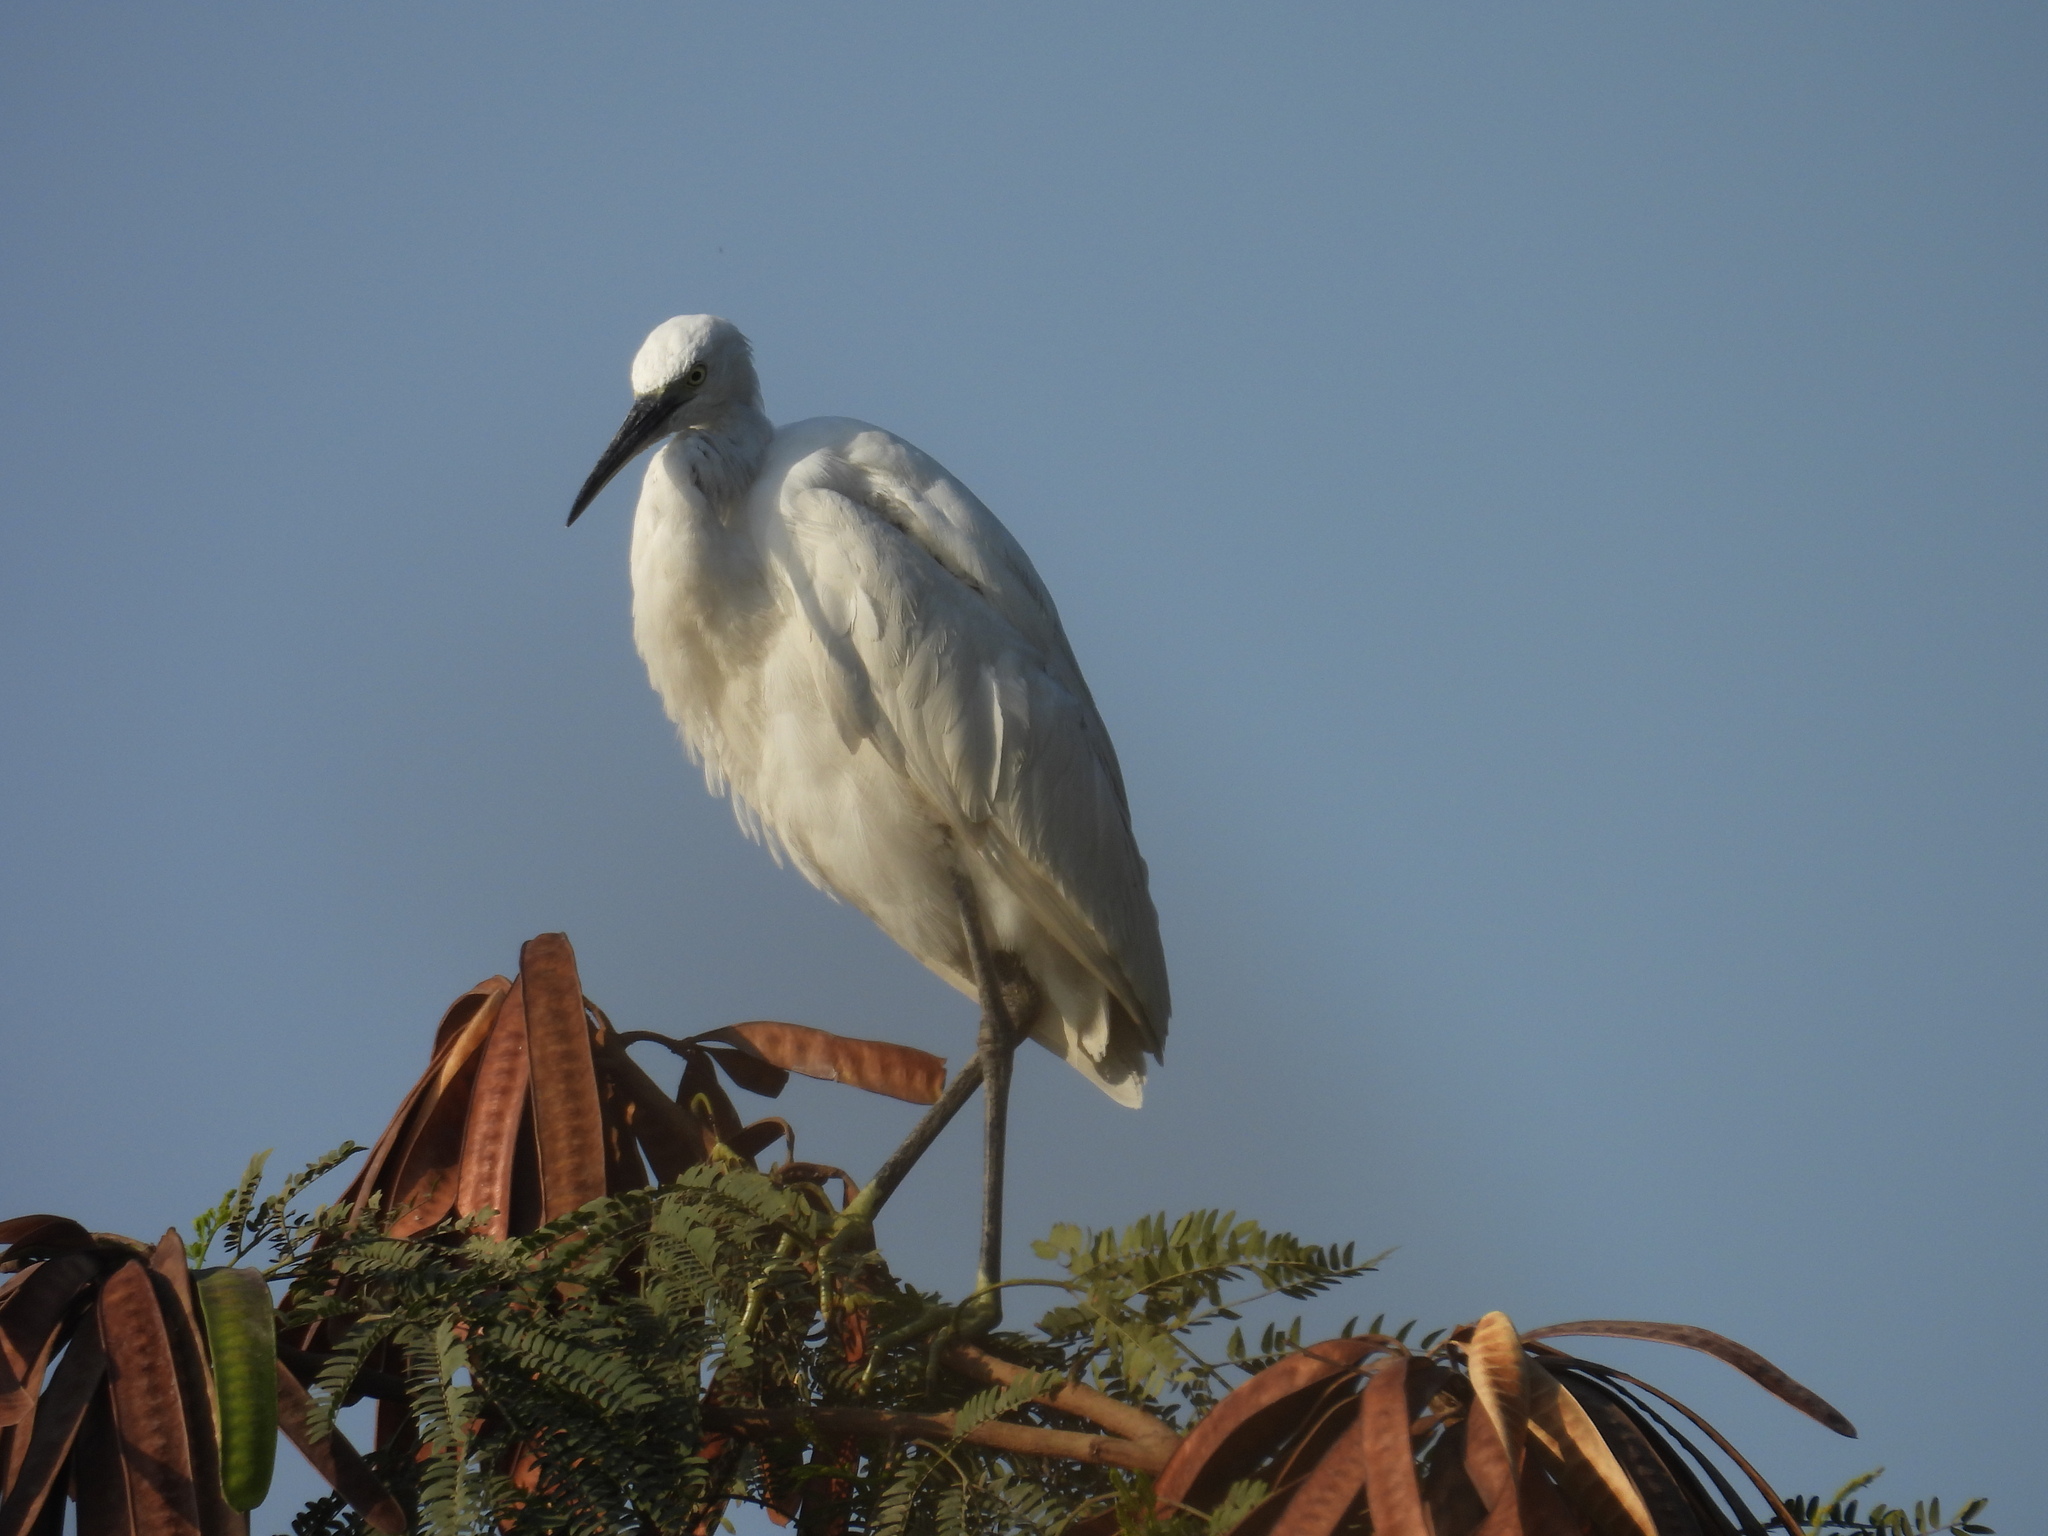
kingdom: Animalia
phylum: Chordata
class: Aves
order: Pelecaniformes
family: Ardeidae
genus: Egretta
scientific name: Egretta garzetta
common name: Little egret
